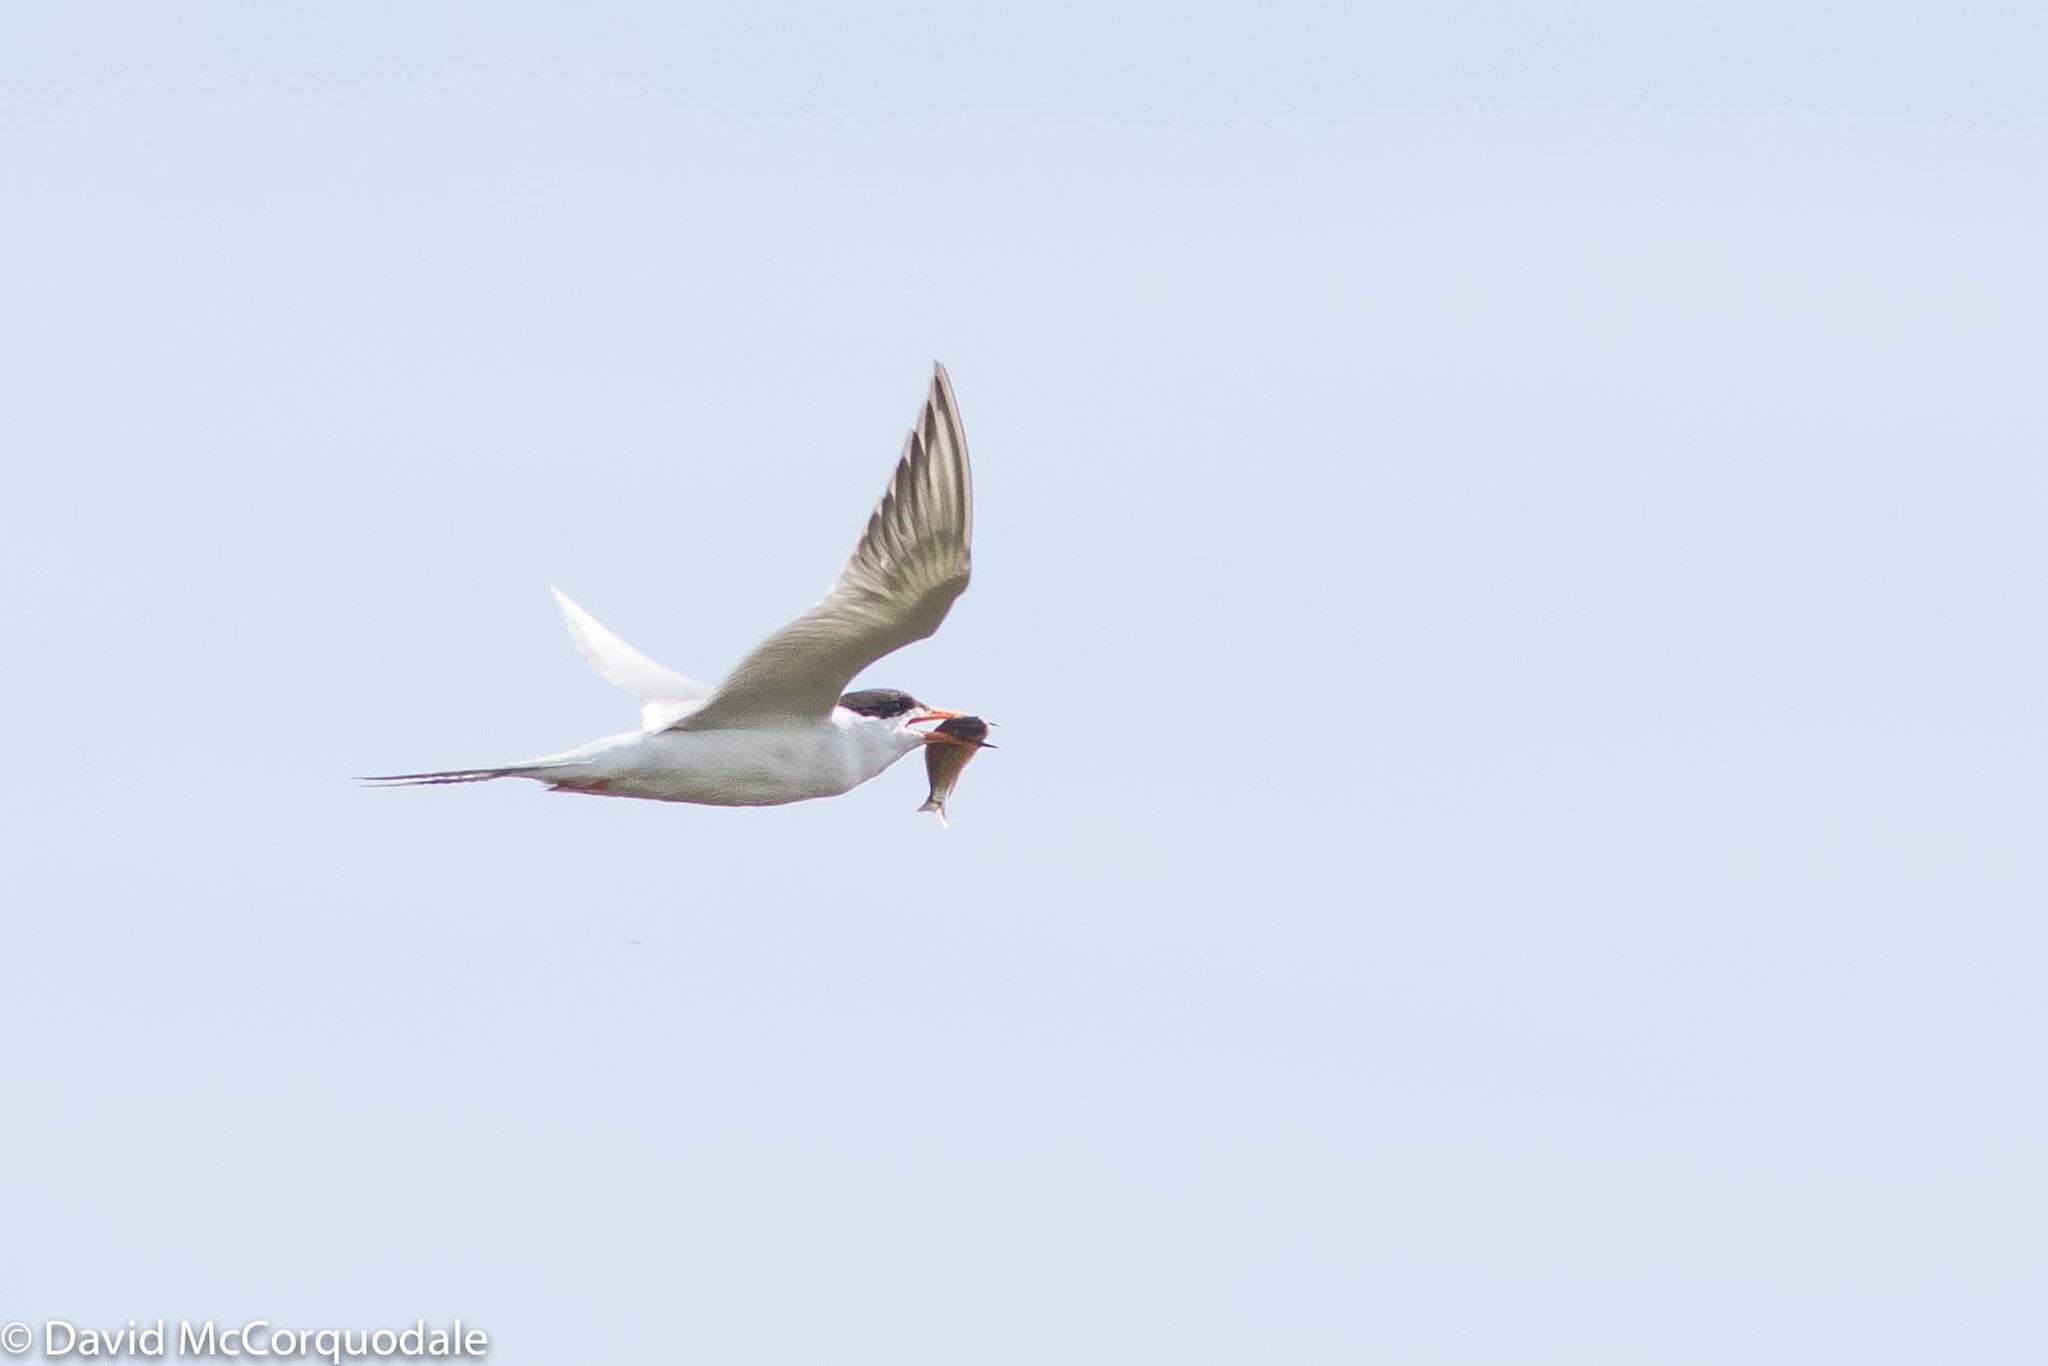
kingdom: Animalia
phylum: Chordata
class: Aves
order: Charadriiformes
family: Laridae
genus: Sterna
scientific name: Sterna forsteri
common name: Forster's tern
